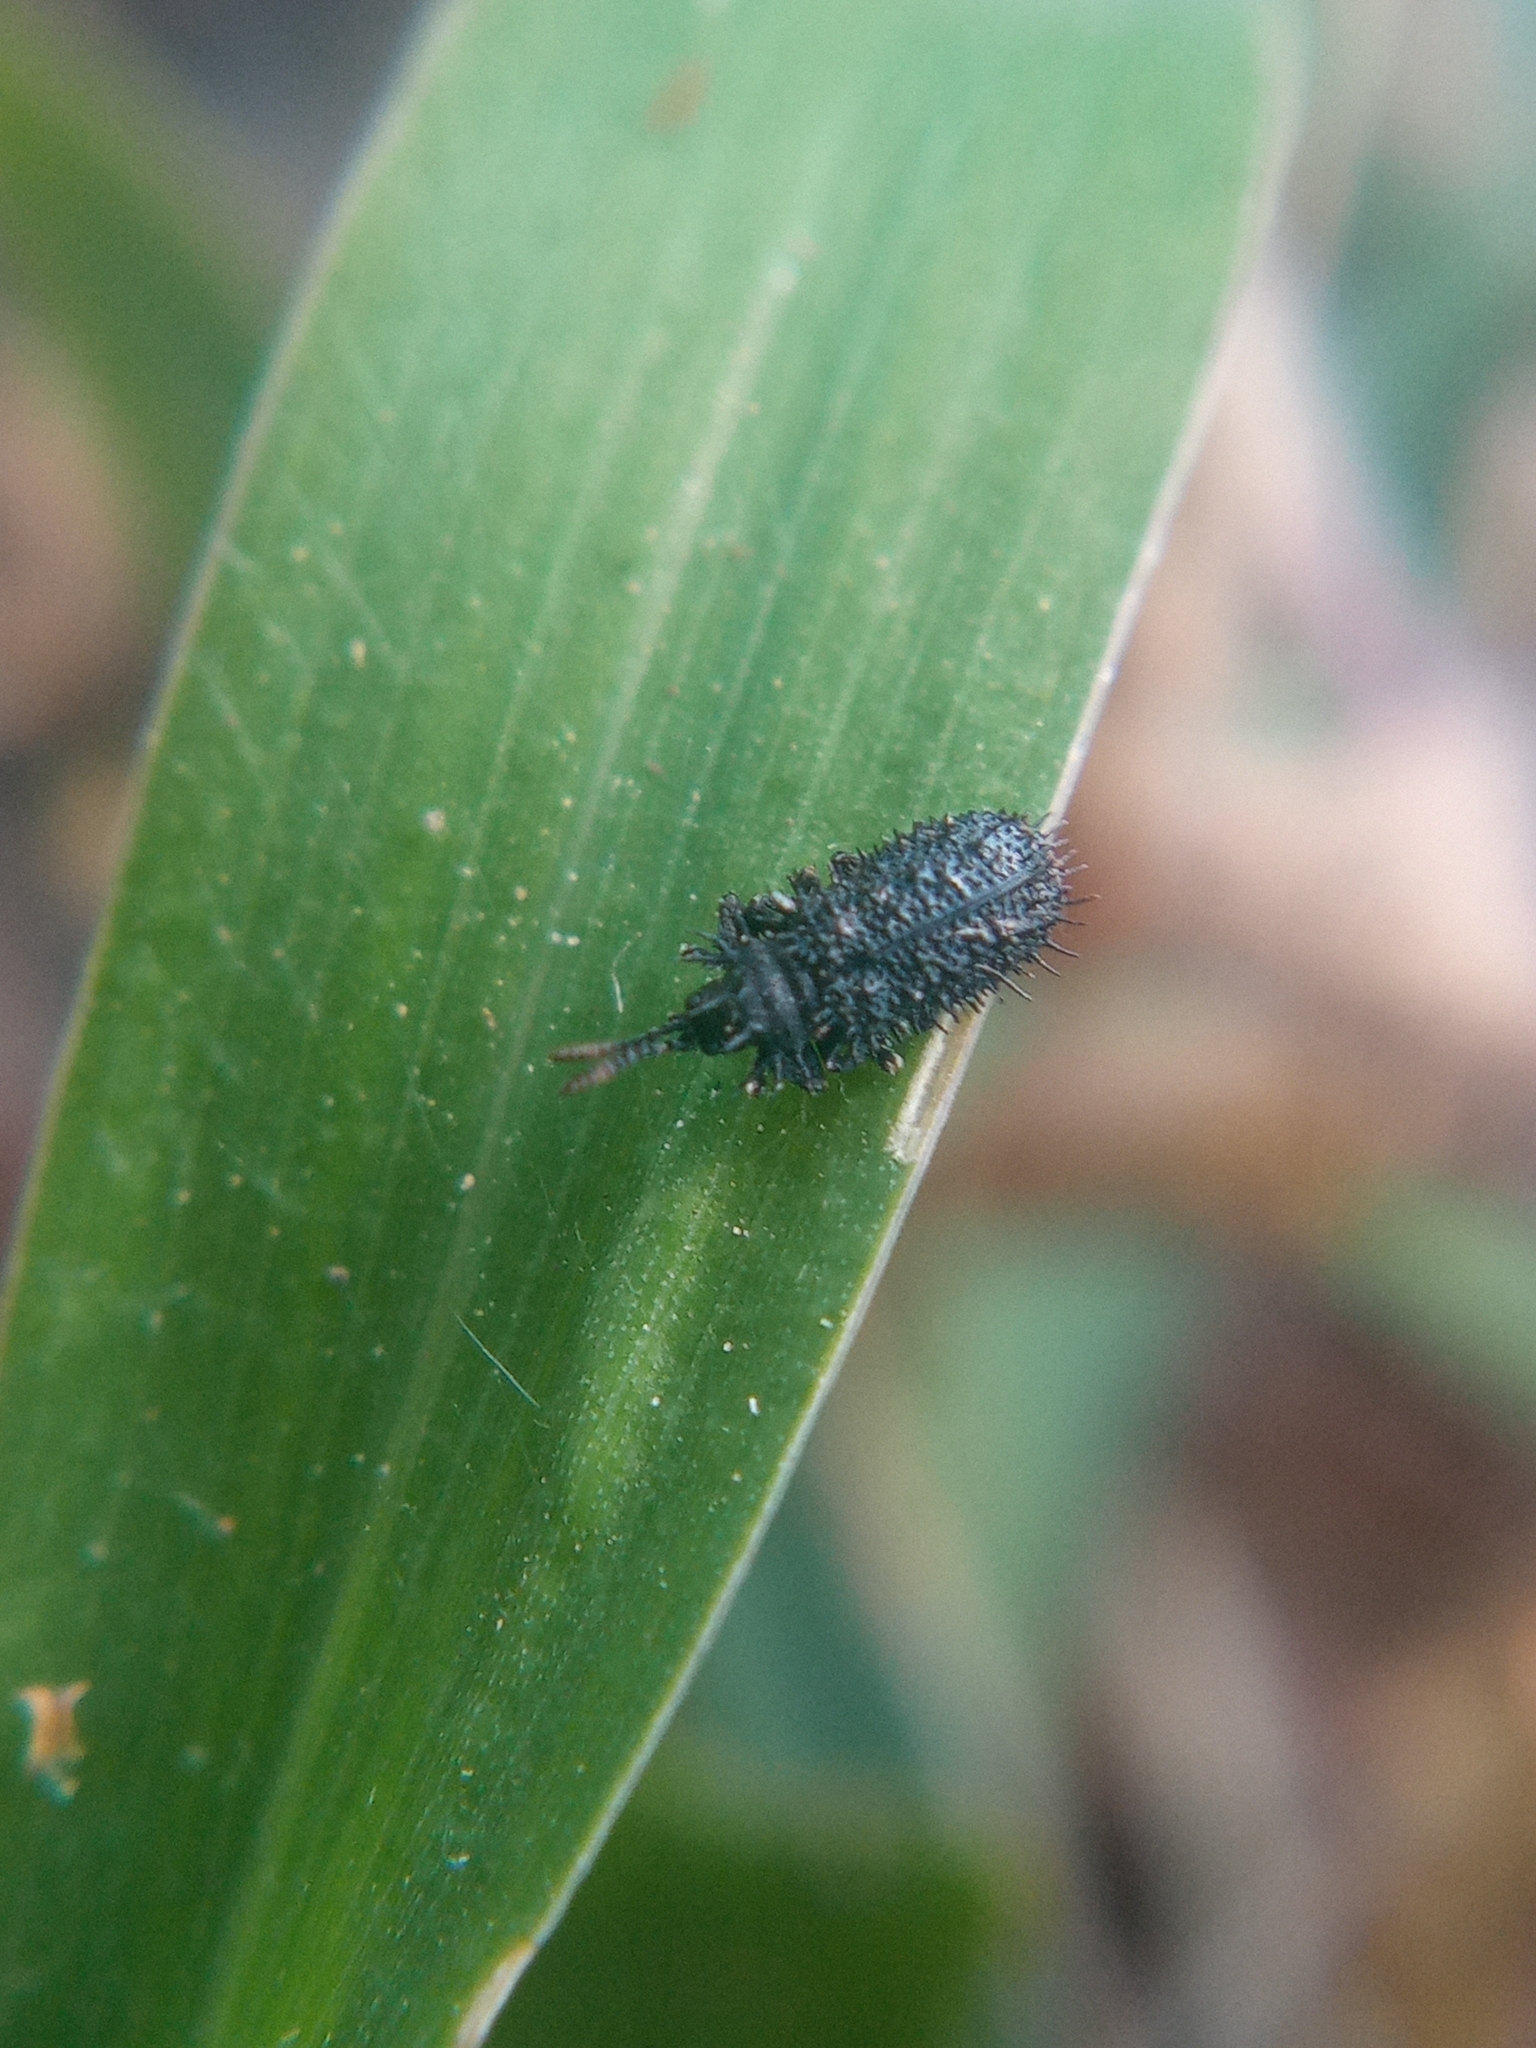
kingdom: Animalia
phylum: Arthropoda
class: Insecta
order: Coleoptera
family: Chrysomelidae
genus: Hispa
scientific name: Hispa atra
